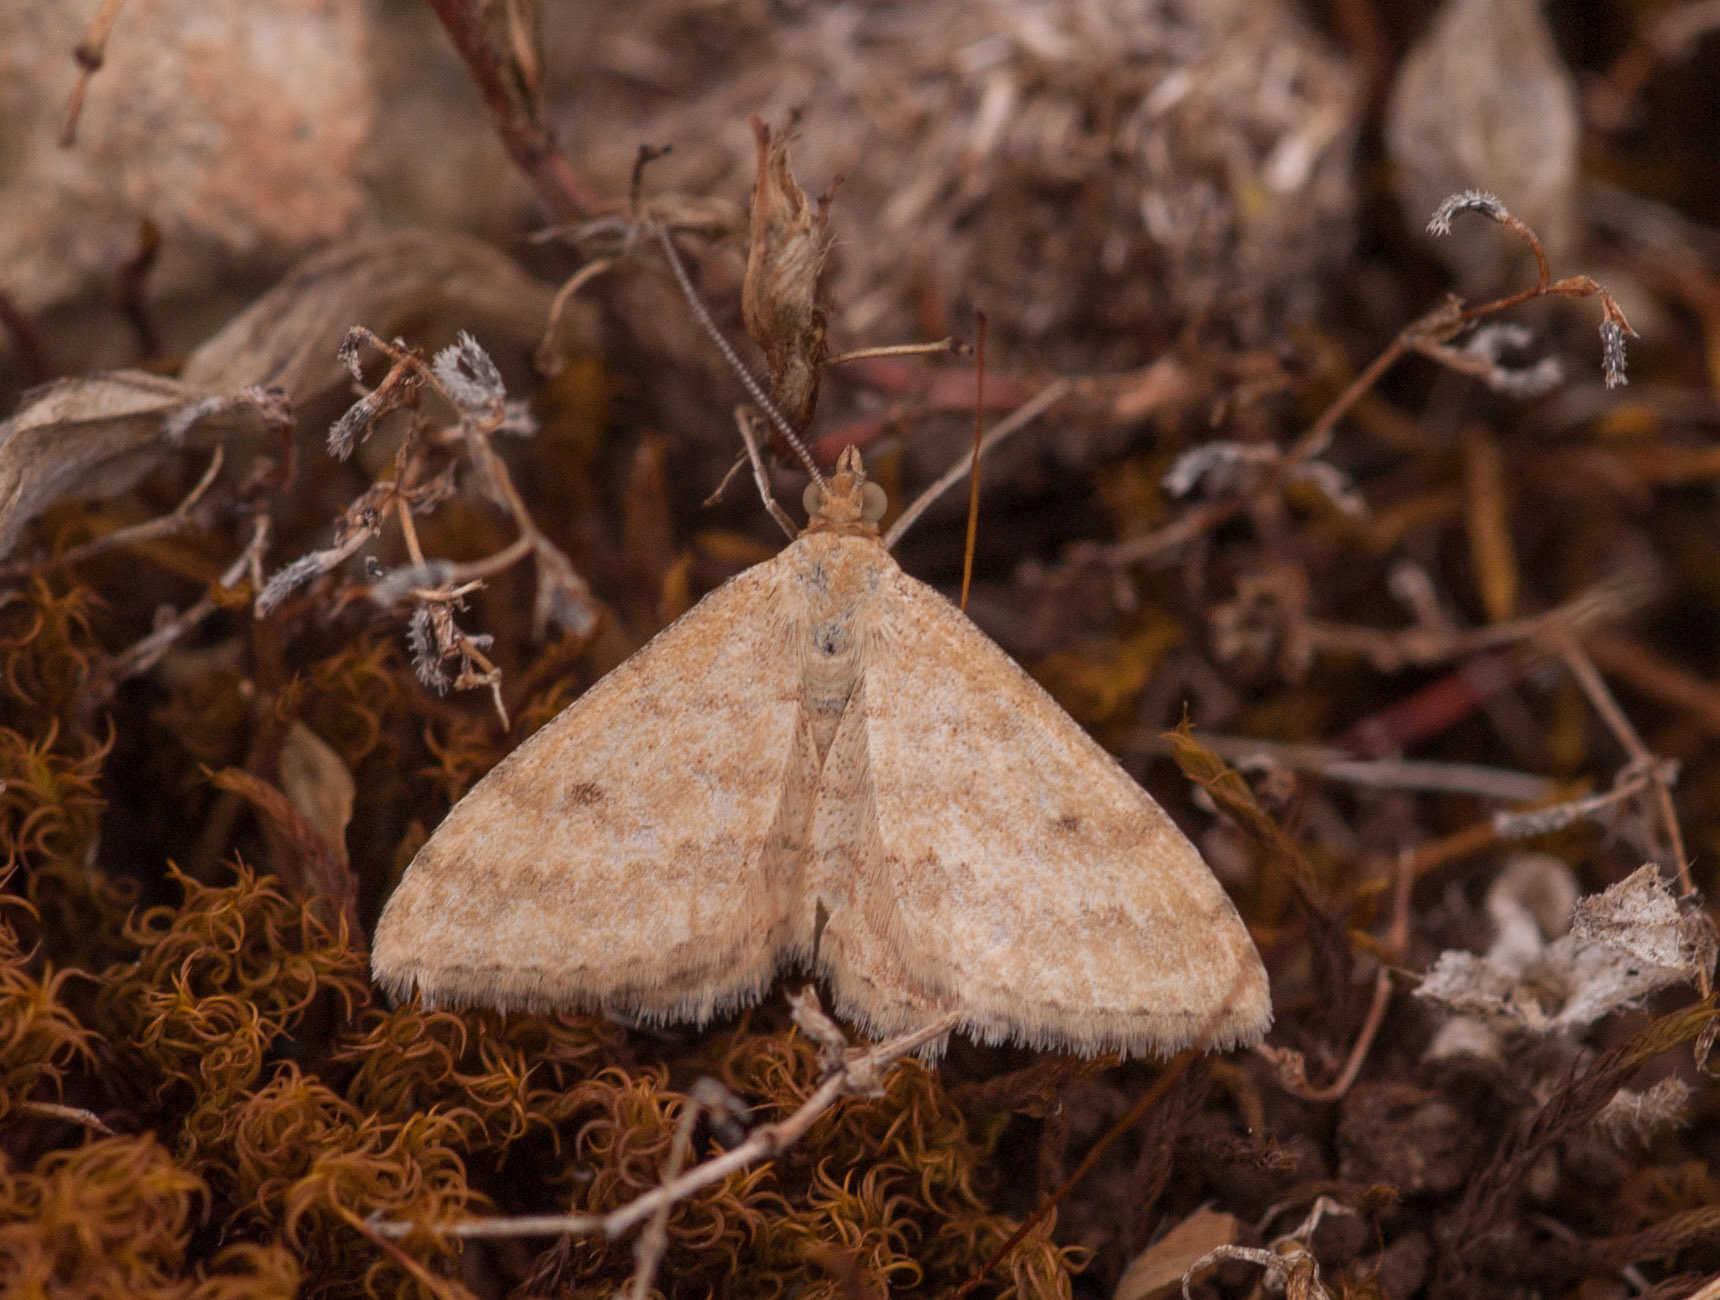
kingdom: Animalia
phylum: Arthropoda
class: Insecta
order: Lepidoptera
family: Geometridae
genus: Scopula
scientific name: Scopula rubraria
